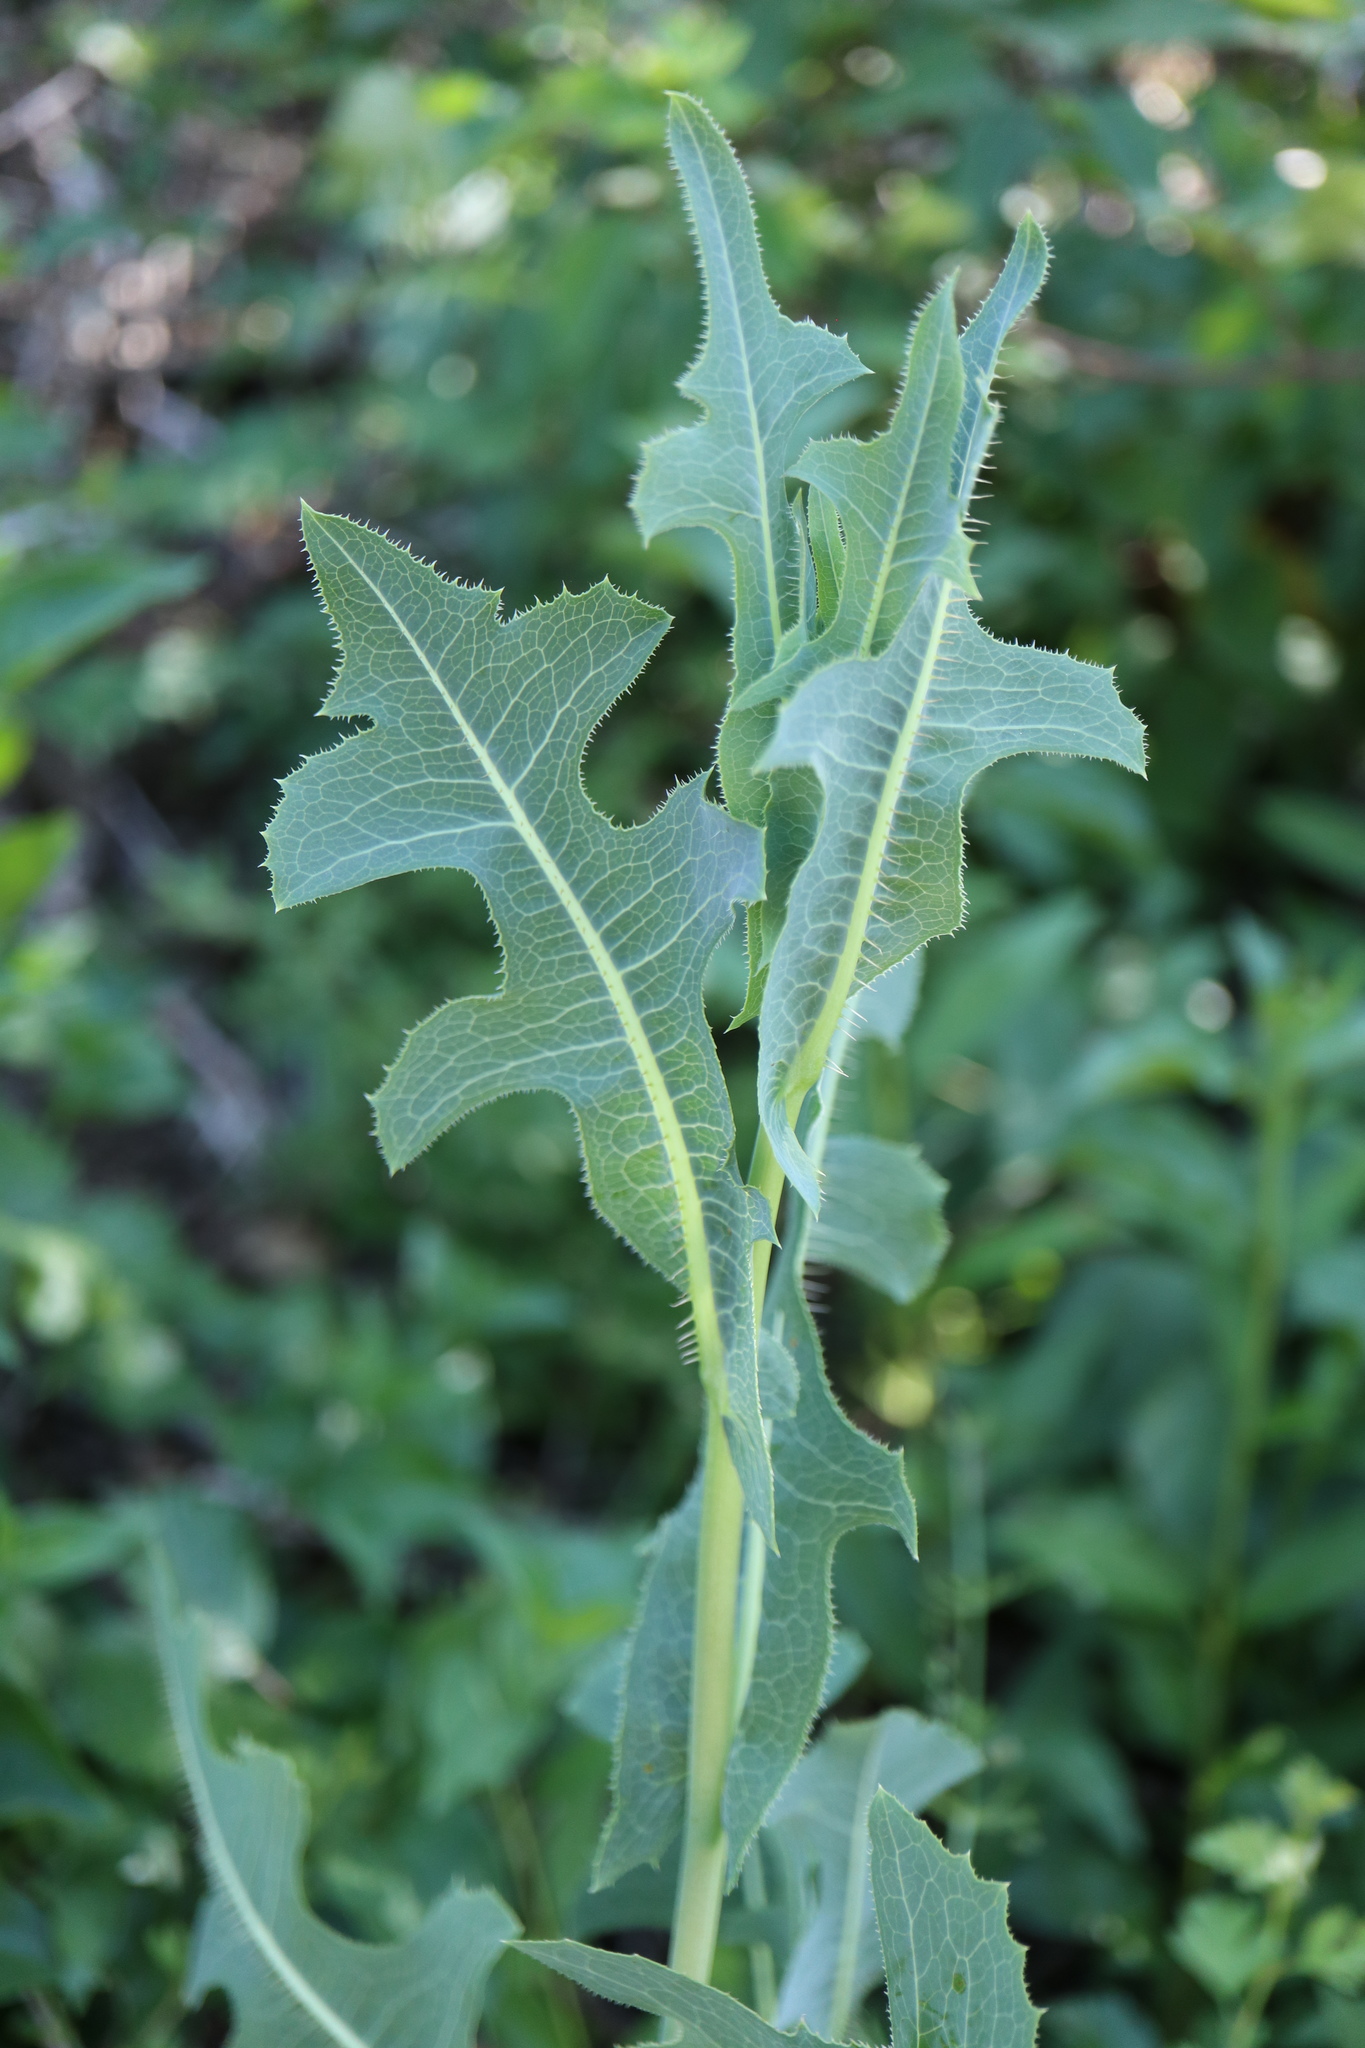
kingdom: Plantae
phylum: Tracheophyta
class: Magnoliopsida
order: Asterales
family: Asteraceae
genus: Lactuca
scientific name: Lactuca serriola
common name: Prickly lettuce
